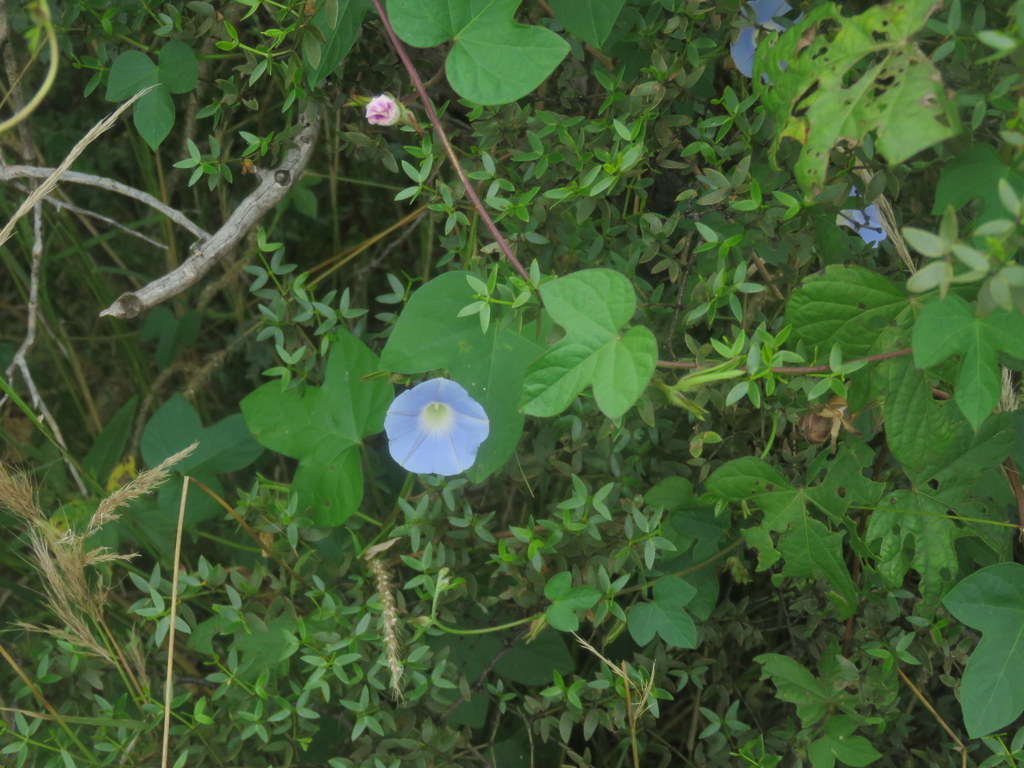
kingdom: Plantae
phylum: Tracheophyta
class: Magnoliopsida
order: Solanales
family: Convolvulaceae
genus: Ipomoea
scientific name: Ipomoea nil
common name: Japanese morning-glory
